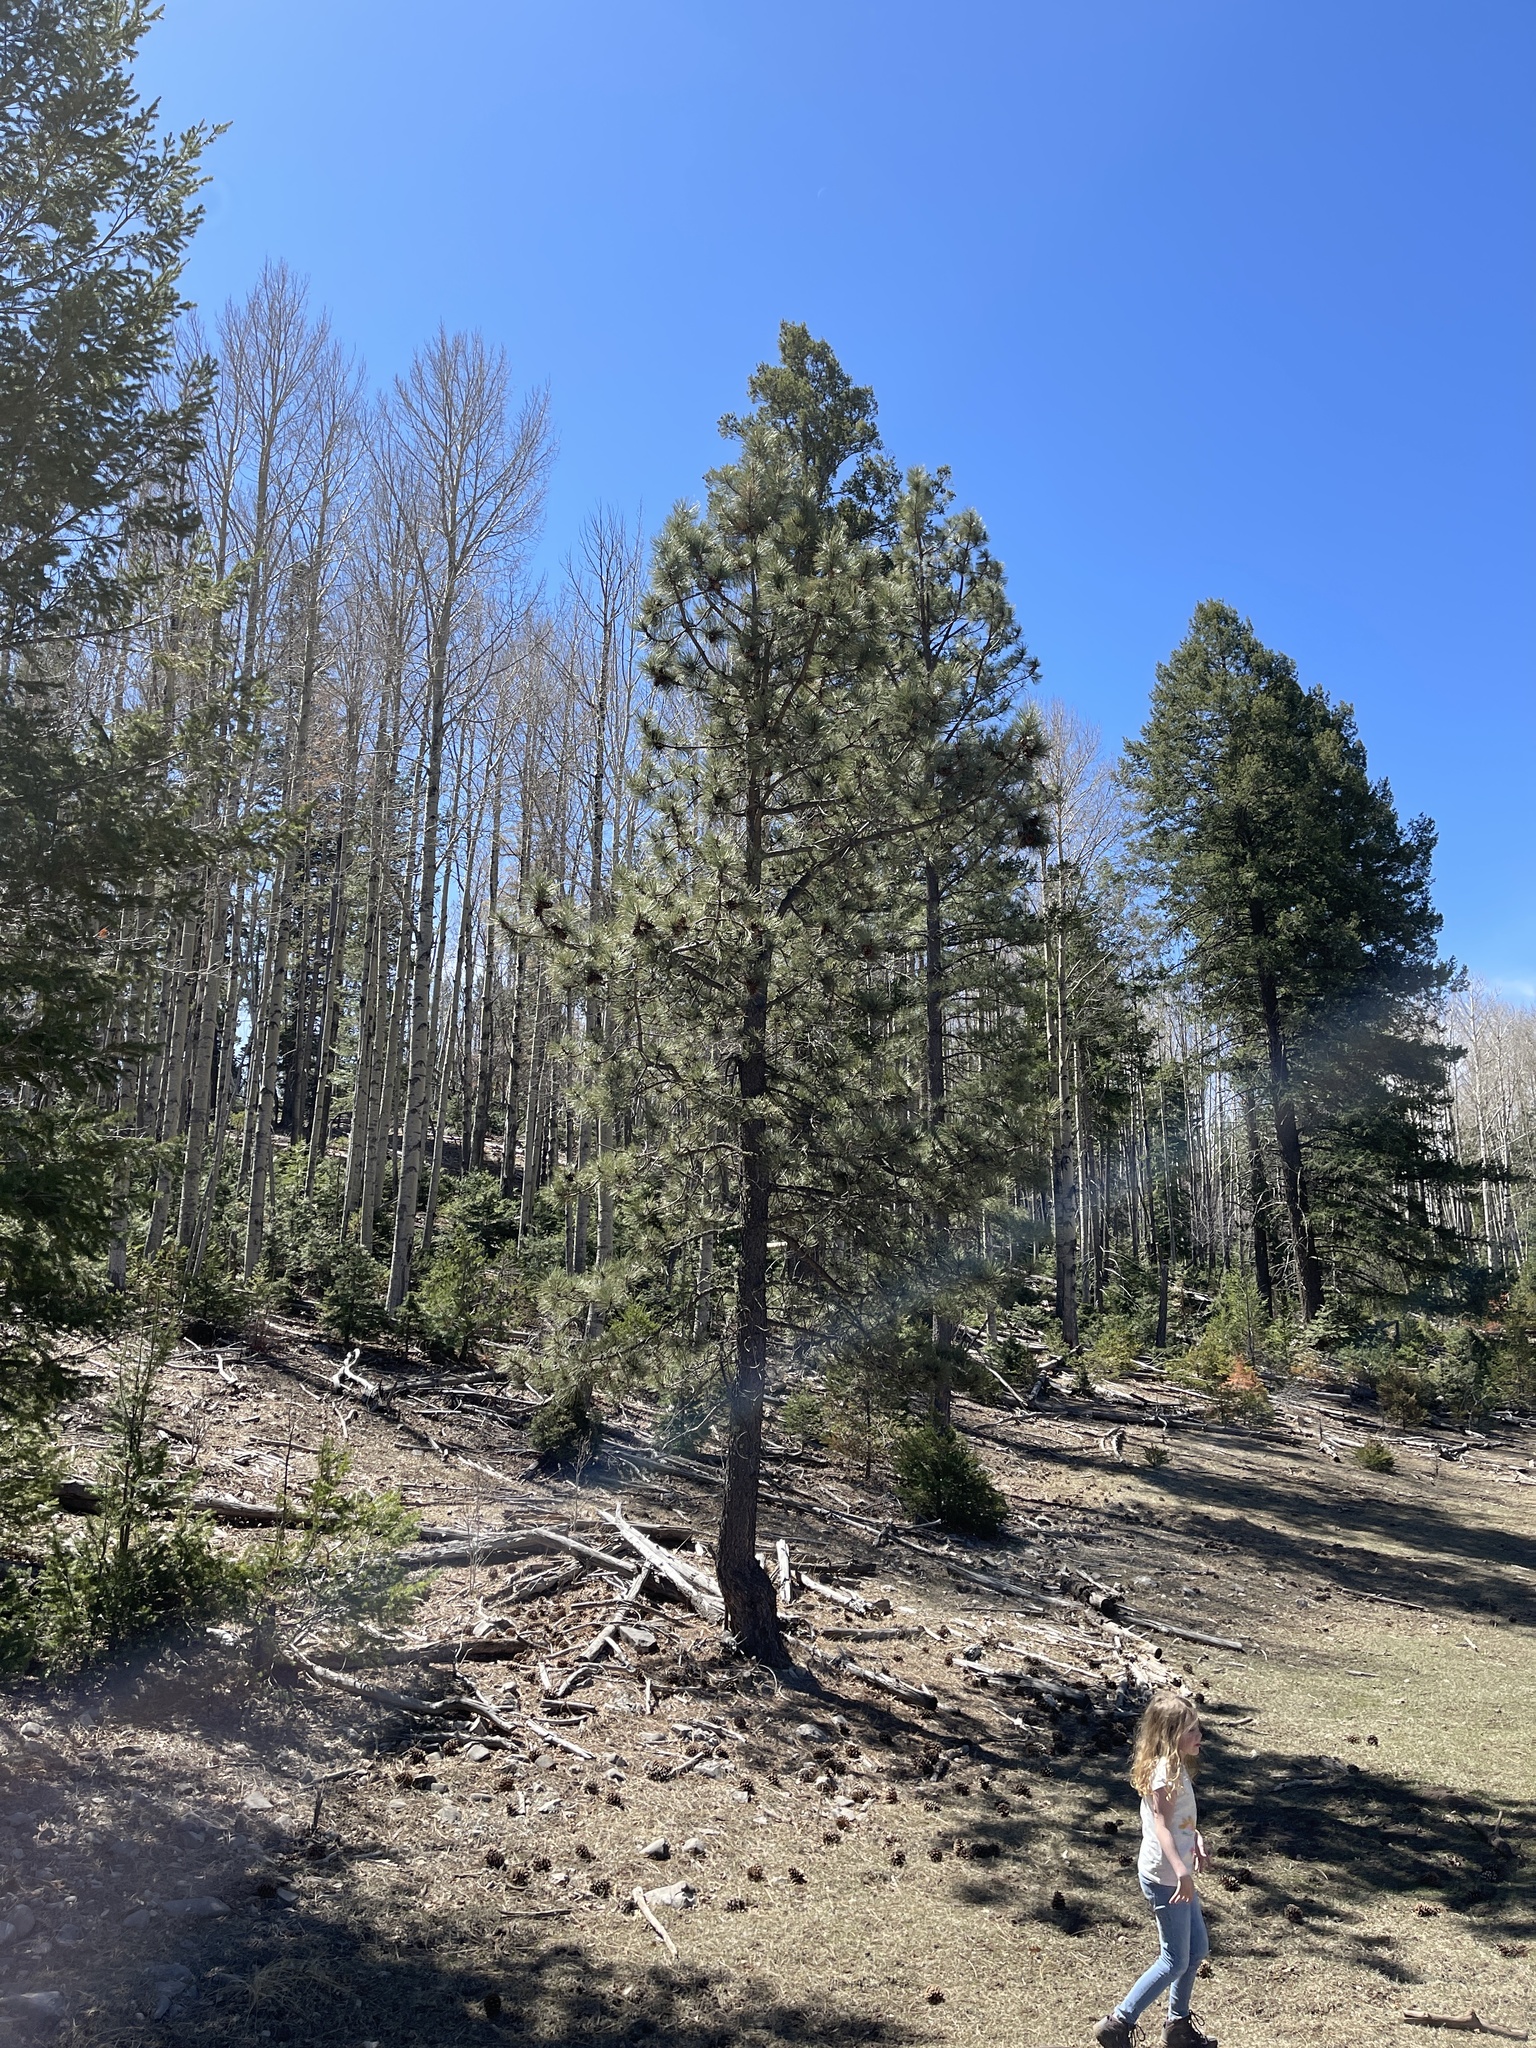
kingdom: Plantae
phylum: Tracheophyta
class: Pinopsida
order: Pinales
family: Pinaceae
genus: Pinus
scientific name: Pinus ponderosa
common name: Western yellow-pine
